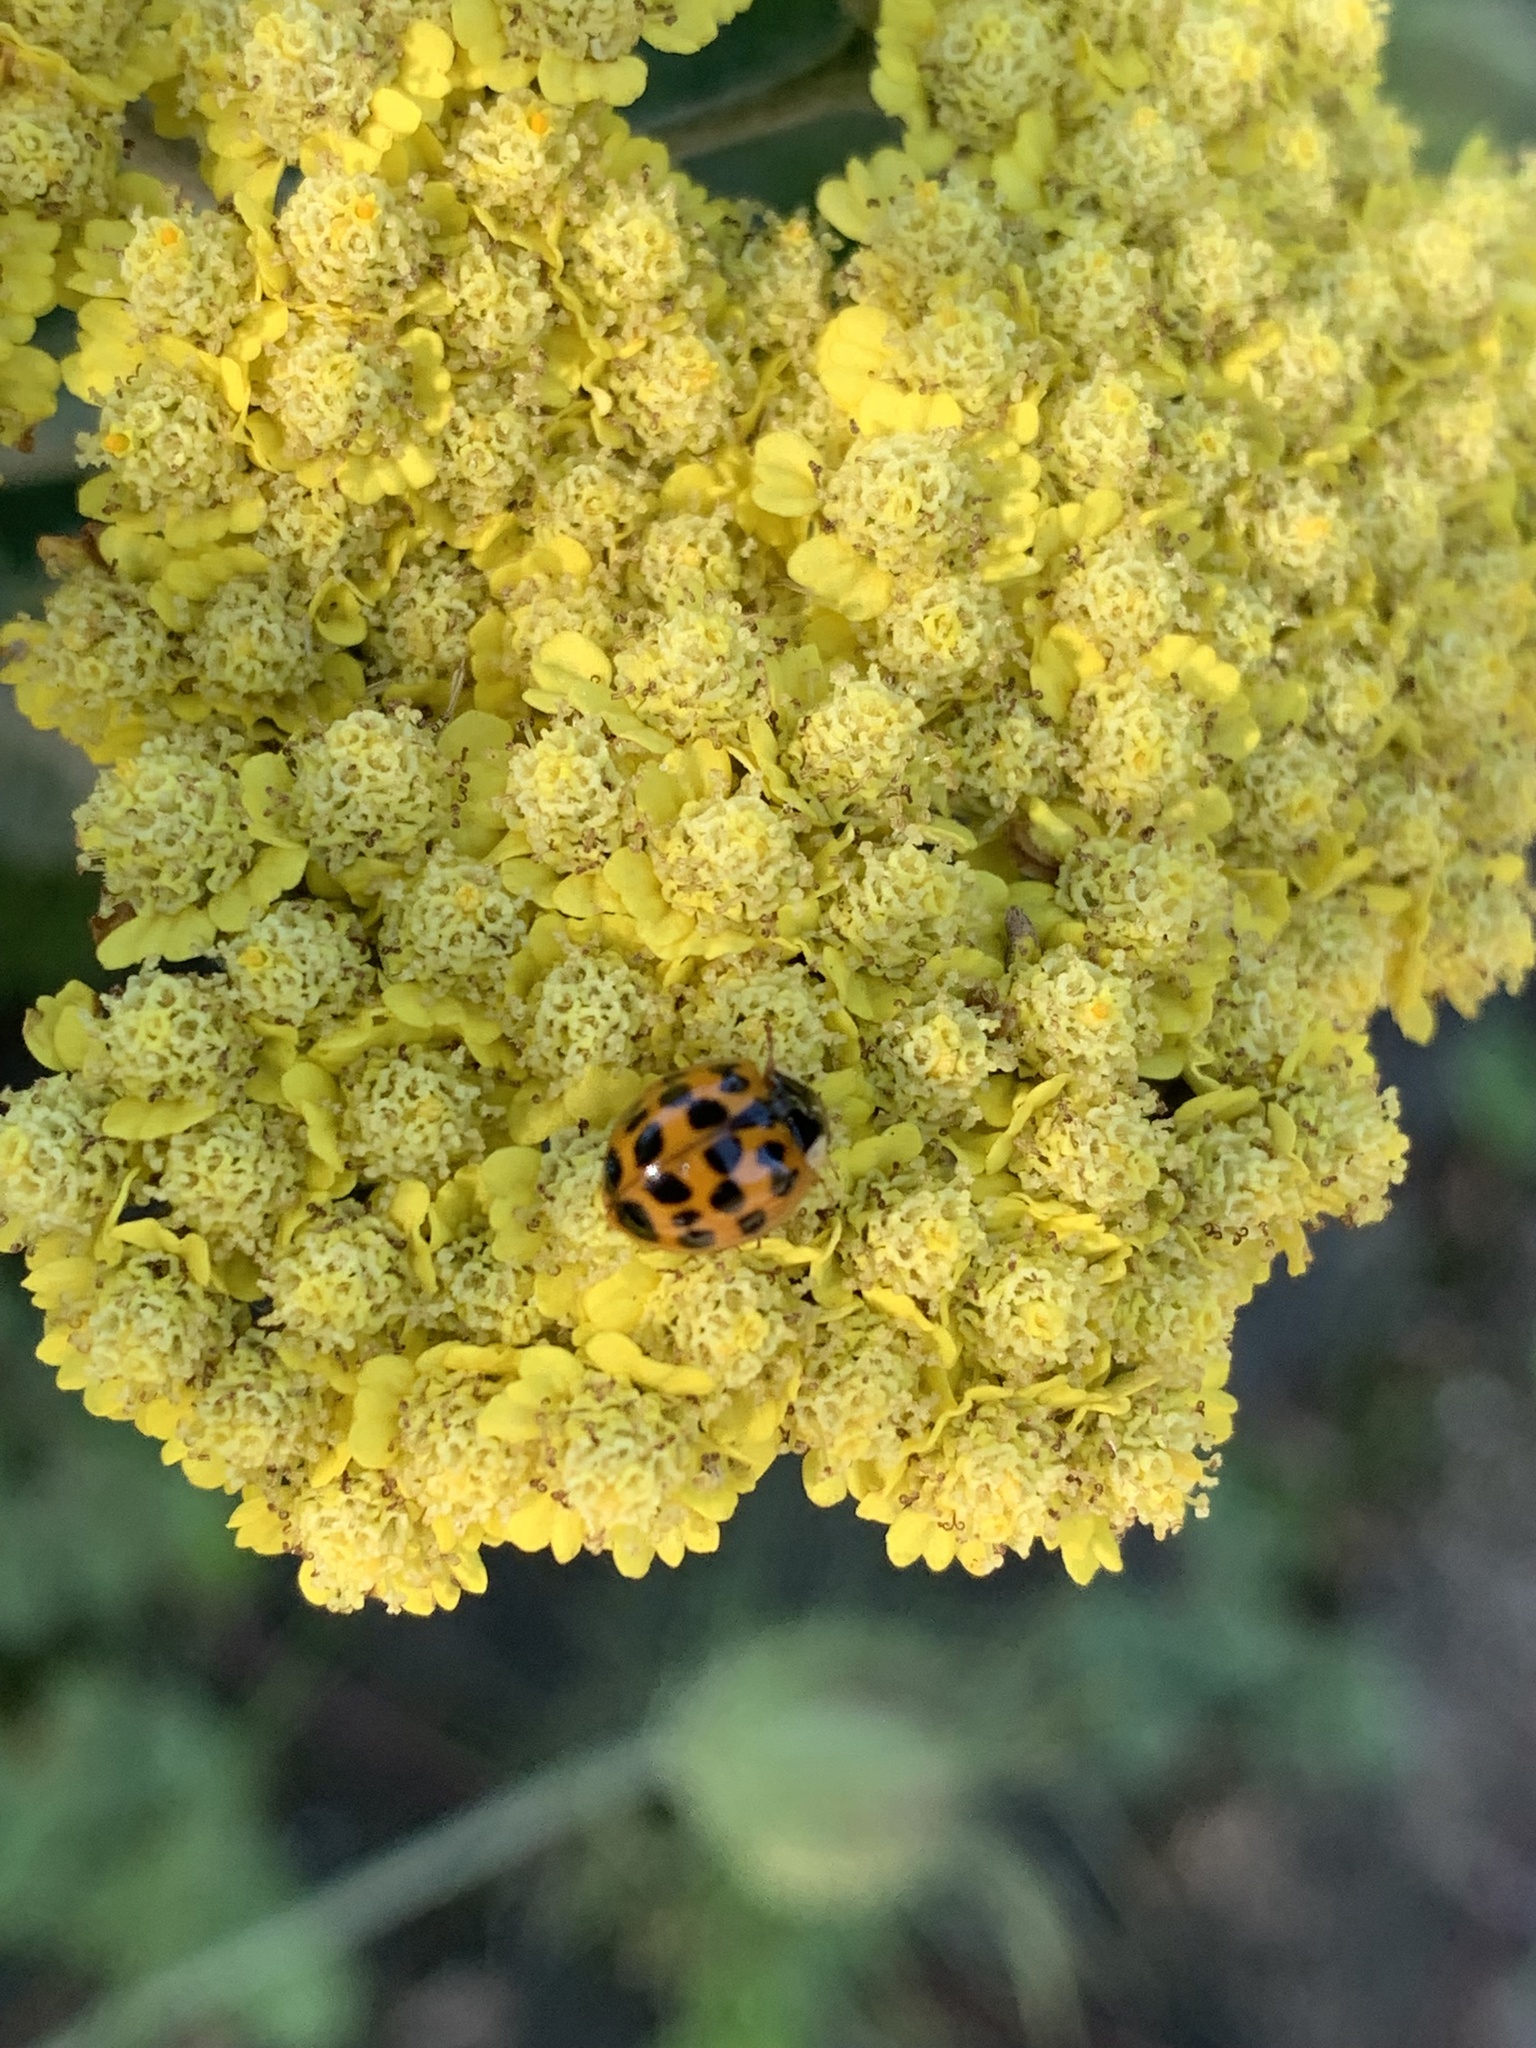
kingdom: Animalia
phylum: Arthropoda
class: Insecta
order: Coleoptera
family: Coccinellidae
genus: Harmonia
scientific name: Harmonia axyridis
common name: Harlequin ladybird
